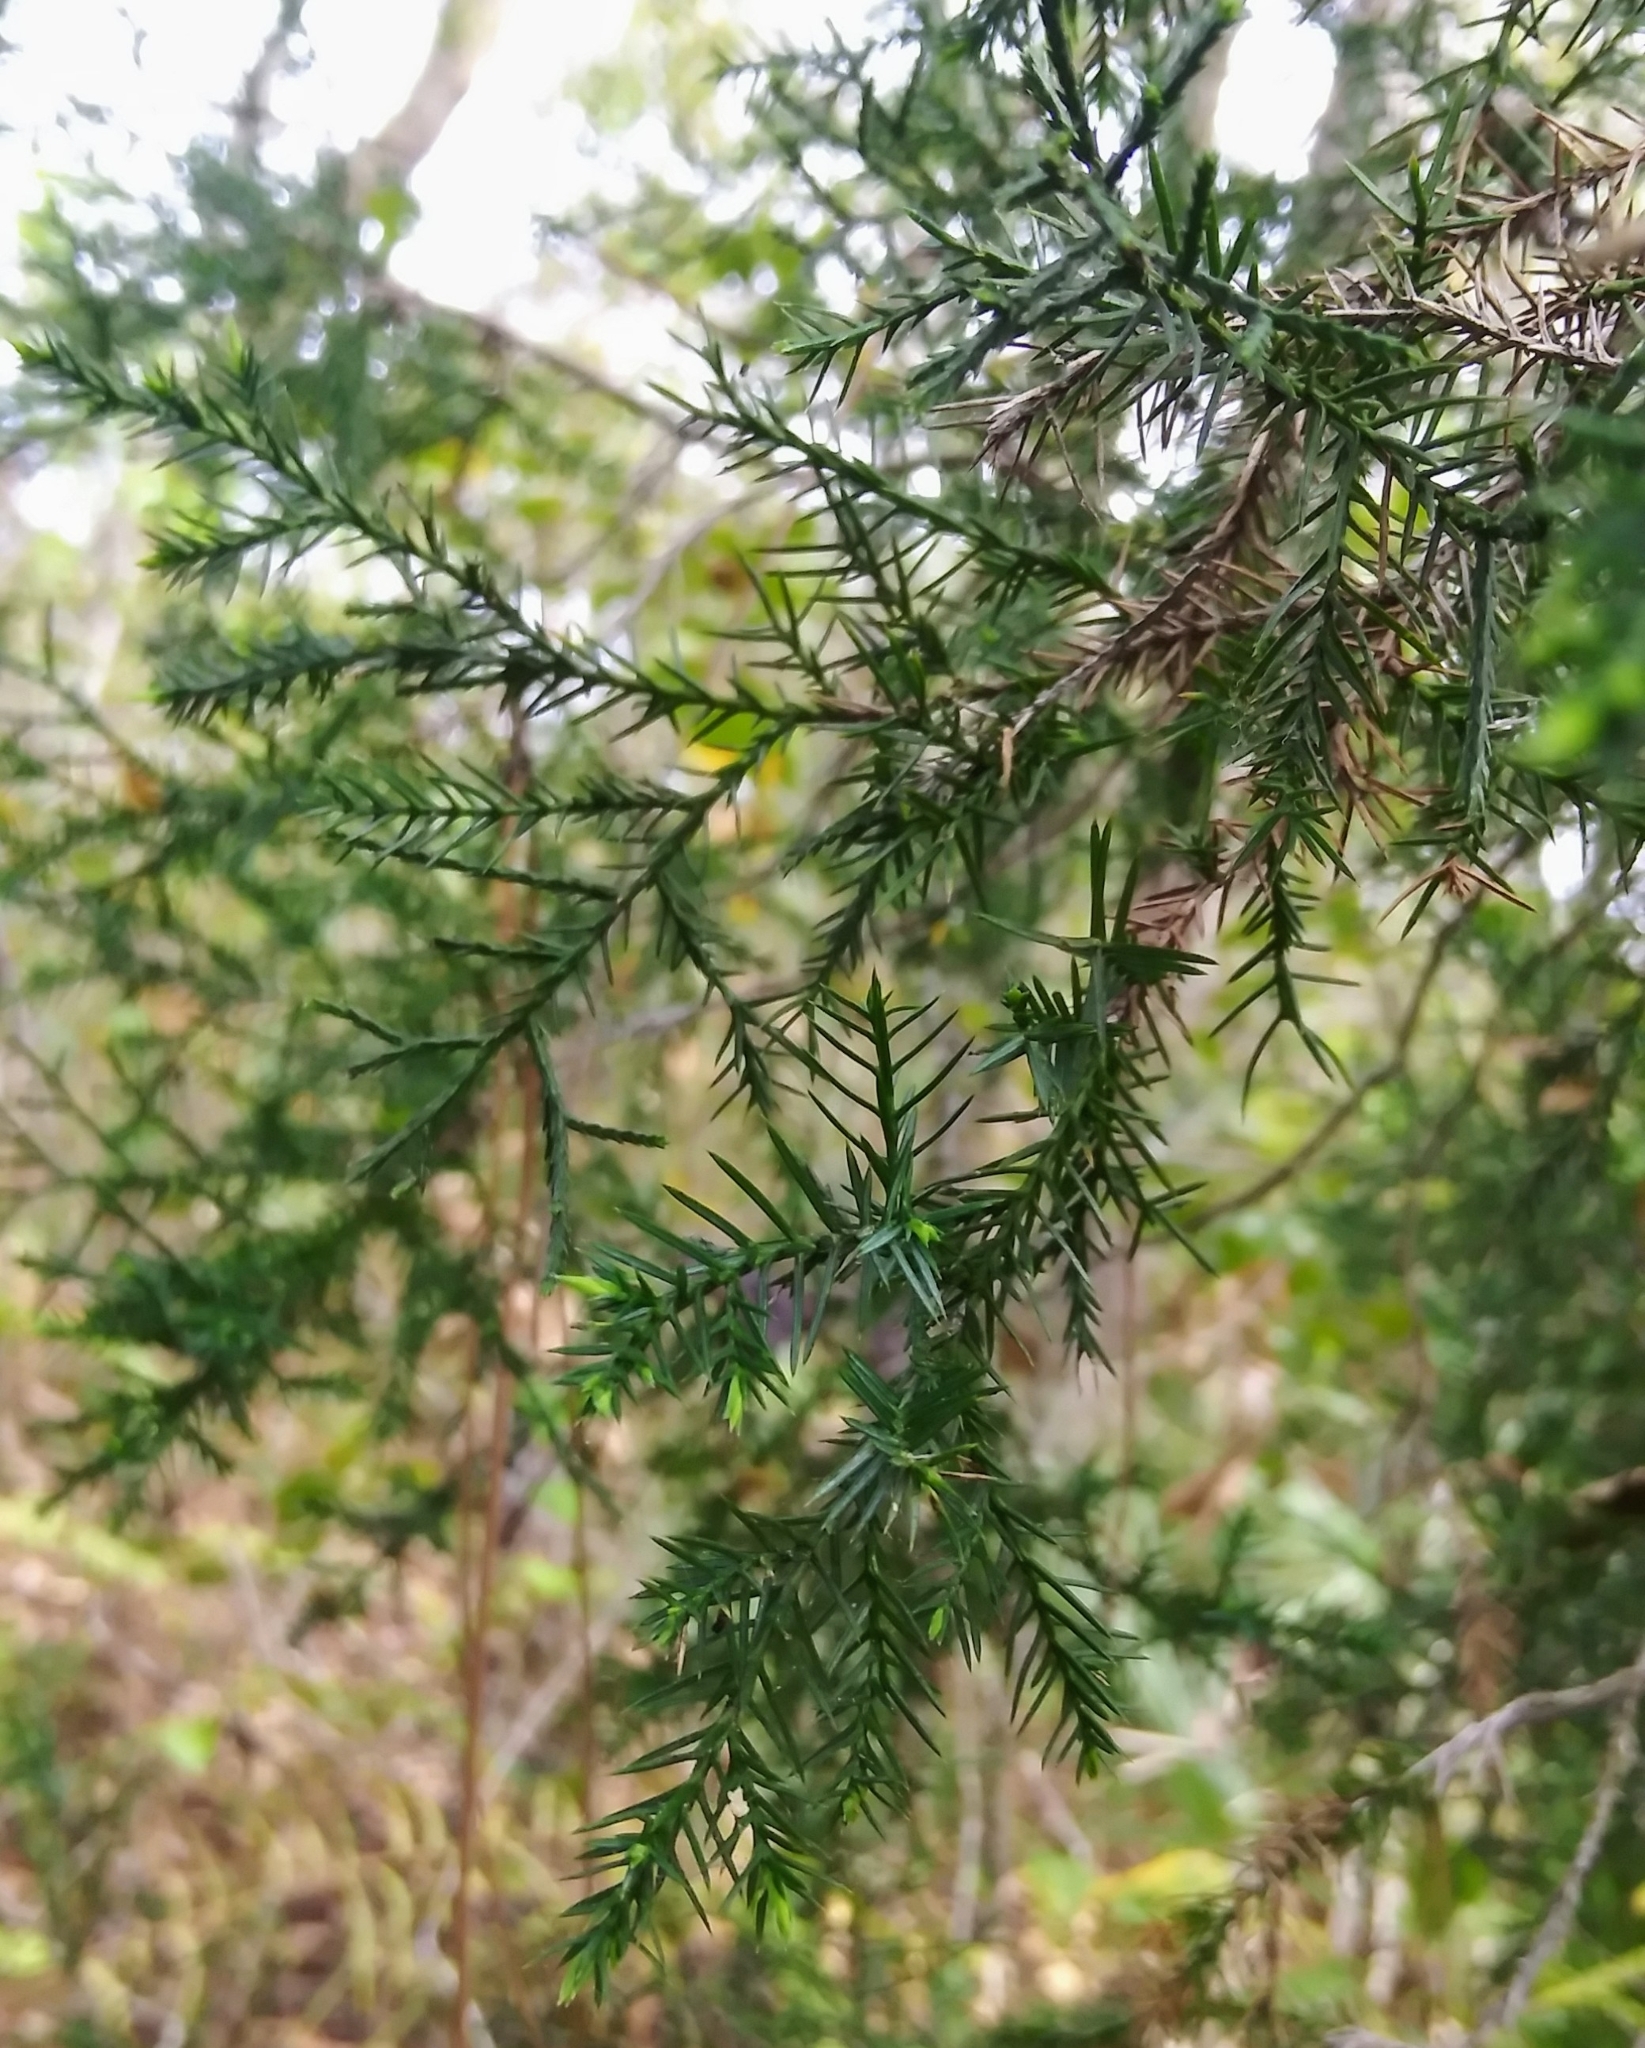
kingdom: Plantae
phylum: Tracheophyta
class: Pinopsida
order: Pinales
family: Cupressaceae
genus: Juniperus
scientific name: Juniperus virginiana
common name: Red juniper
